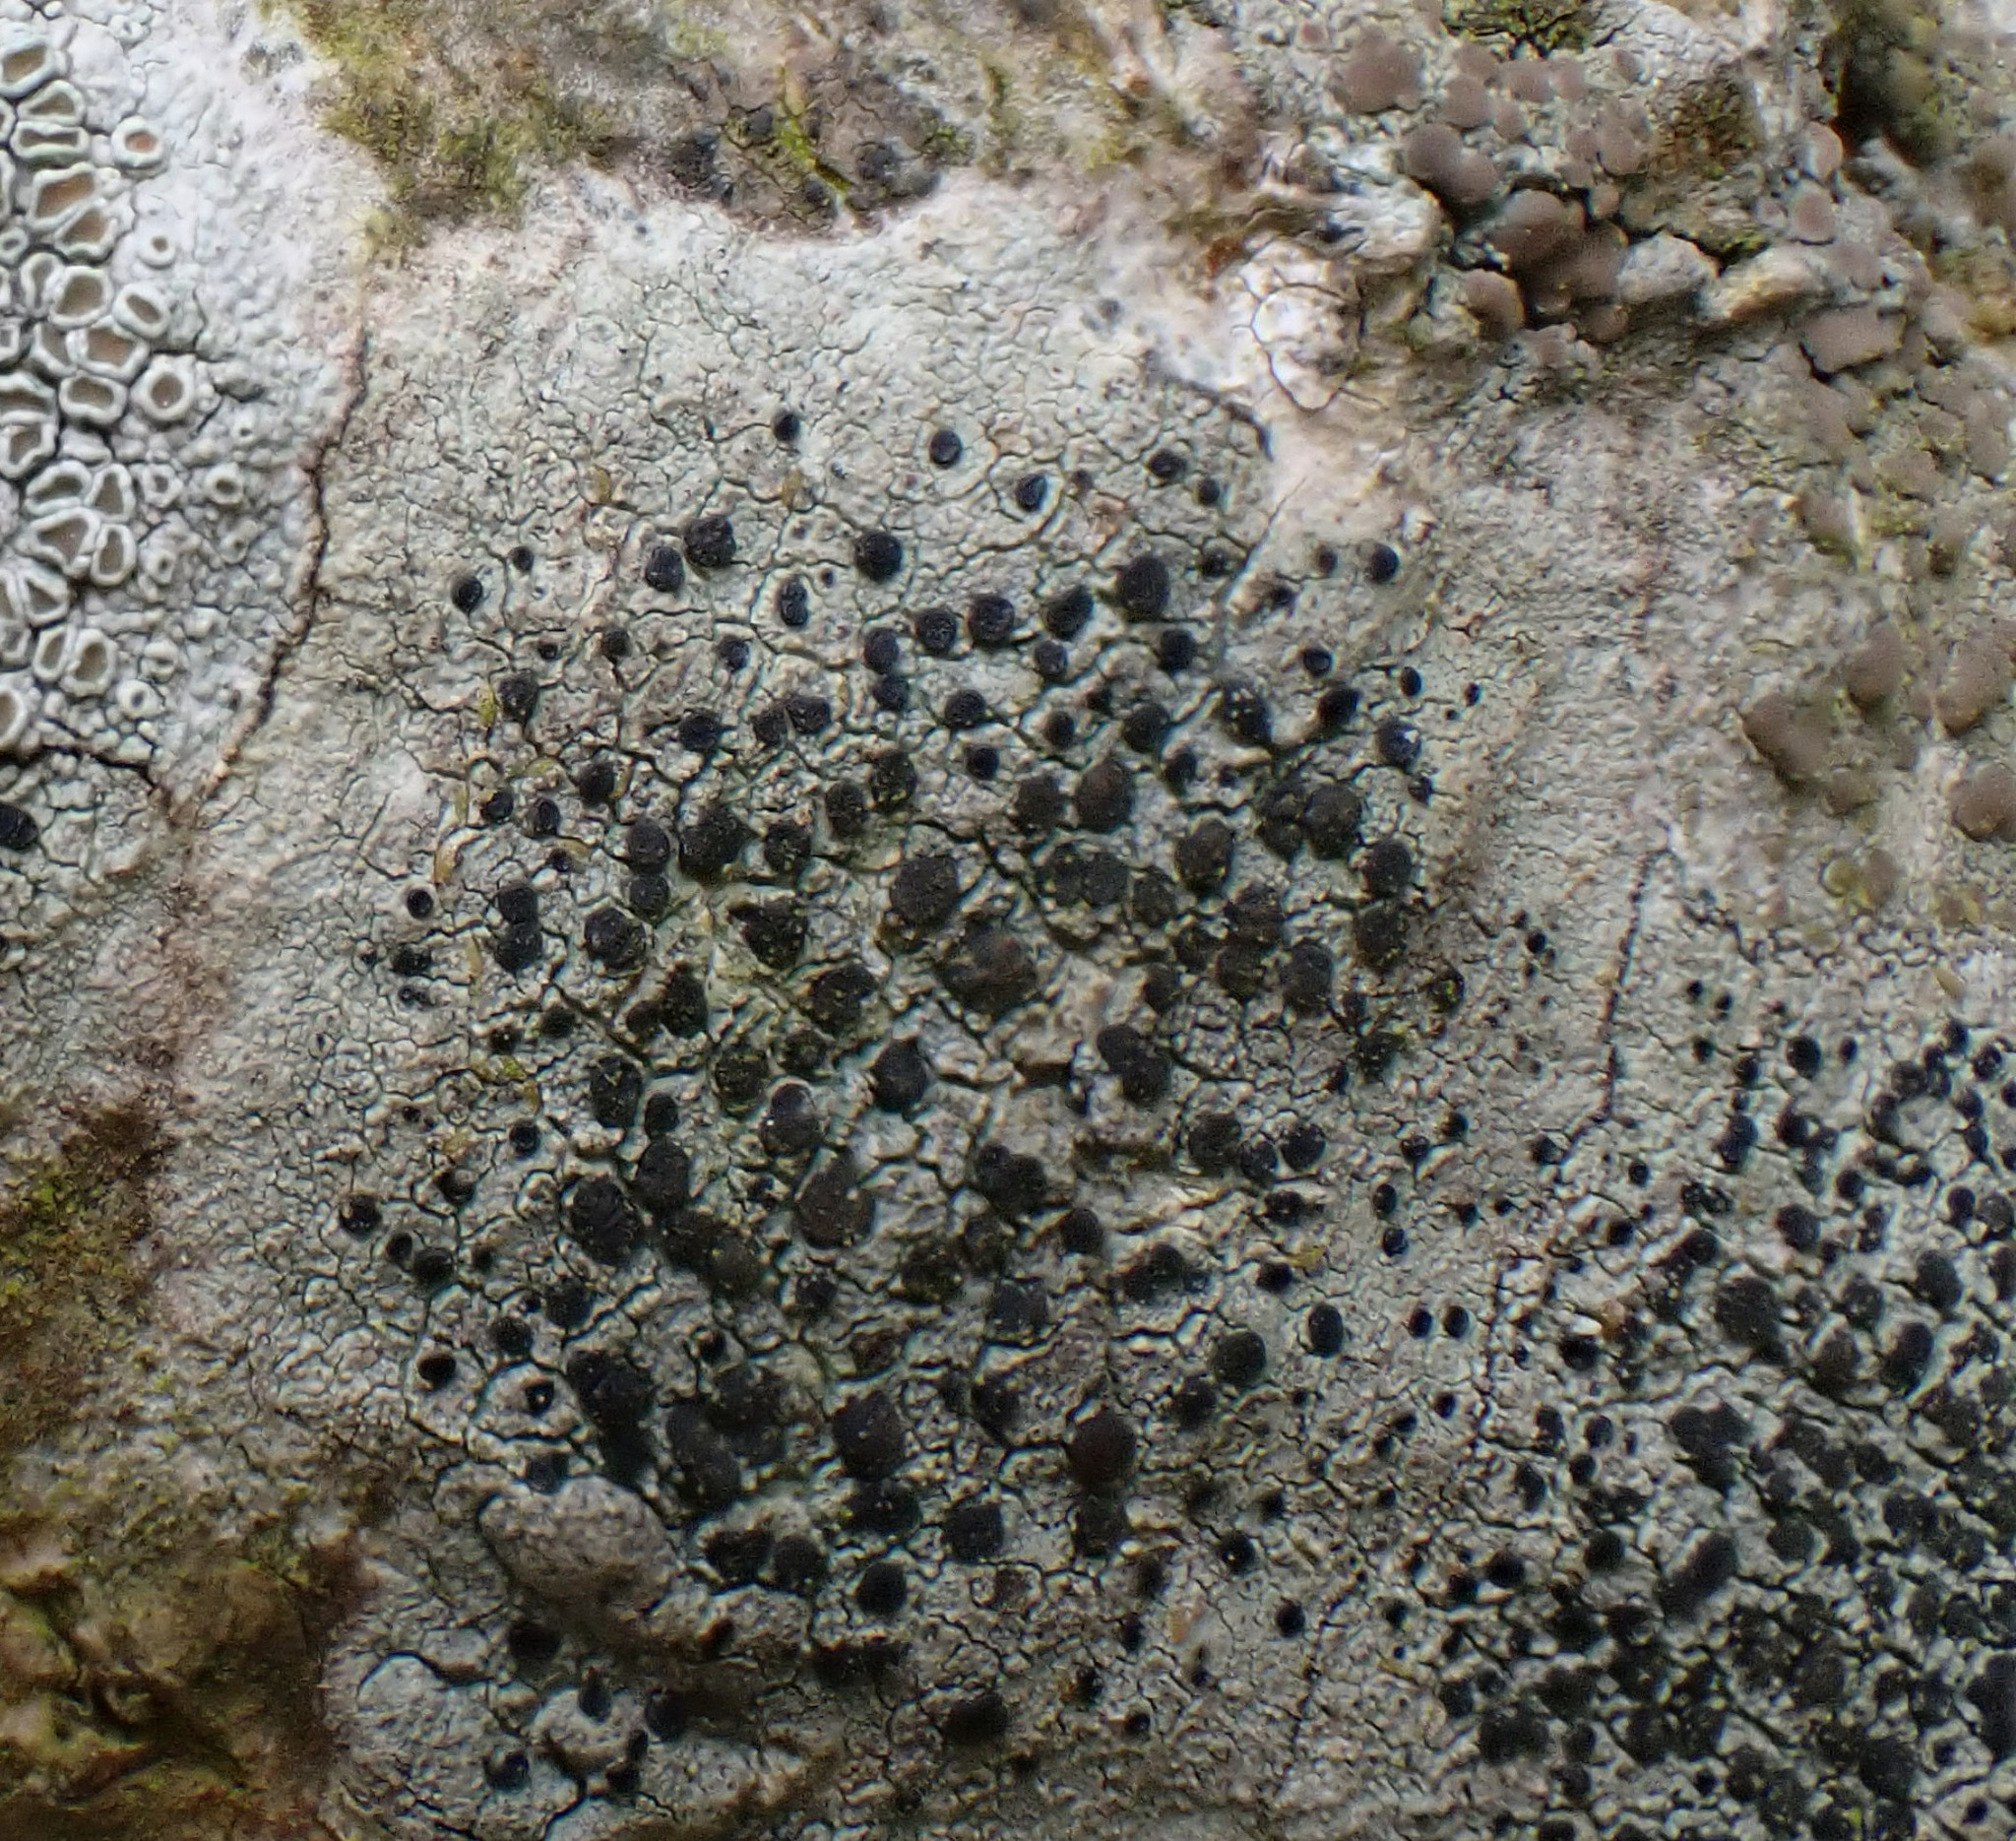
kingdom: Fungi
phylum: Ascomycota
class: Lecanoromycetes
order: Lecanorales
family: Lecanoraceae
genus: Lecidella
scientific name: Lecidella elaeochroma
